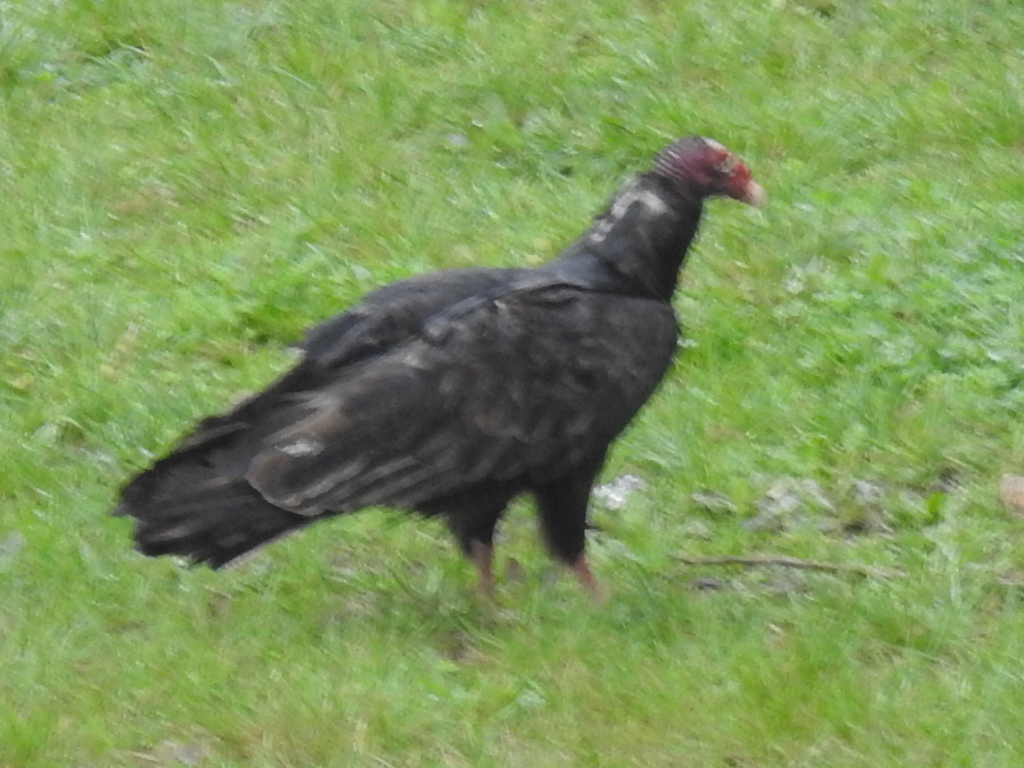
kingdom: Animalia
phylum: Chordata
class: Aves
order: Accipitriformes
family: Cathartidae
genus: Cathartes
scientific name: Cathartes aura
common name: Turkey vulture
